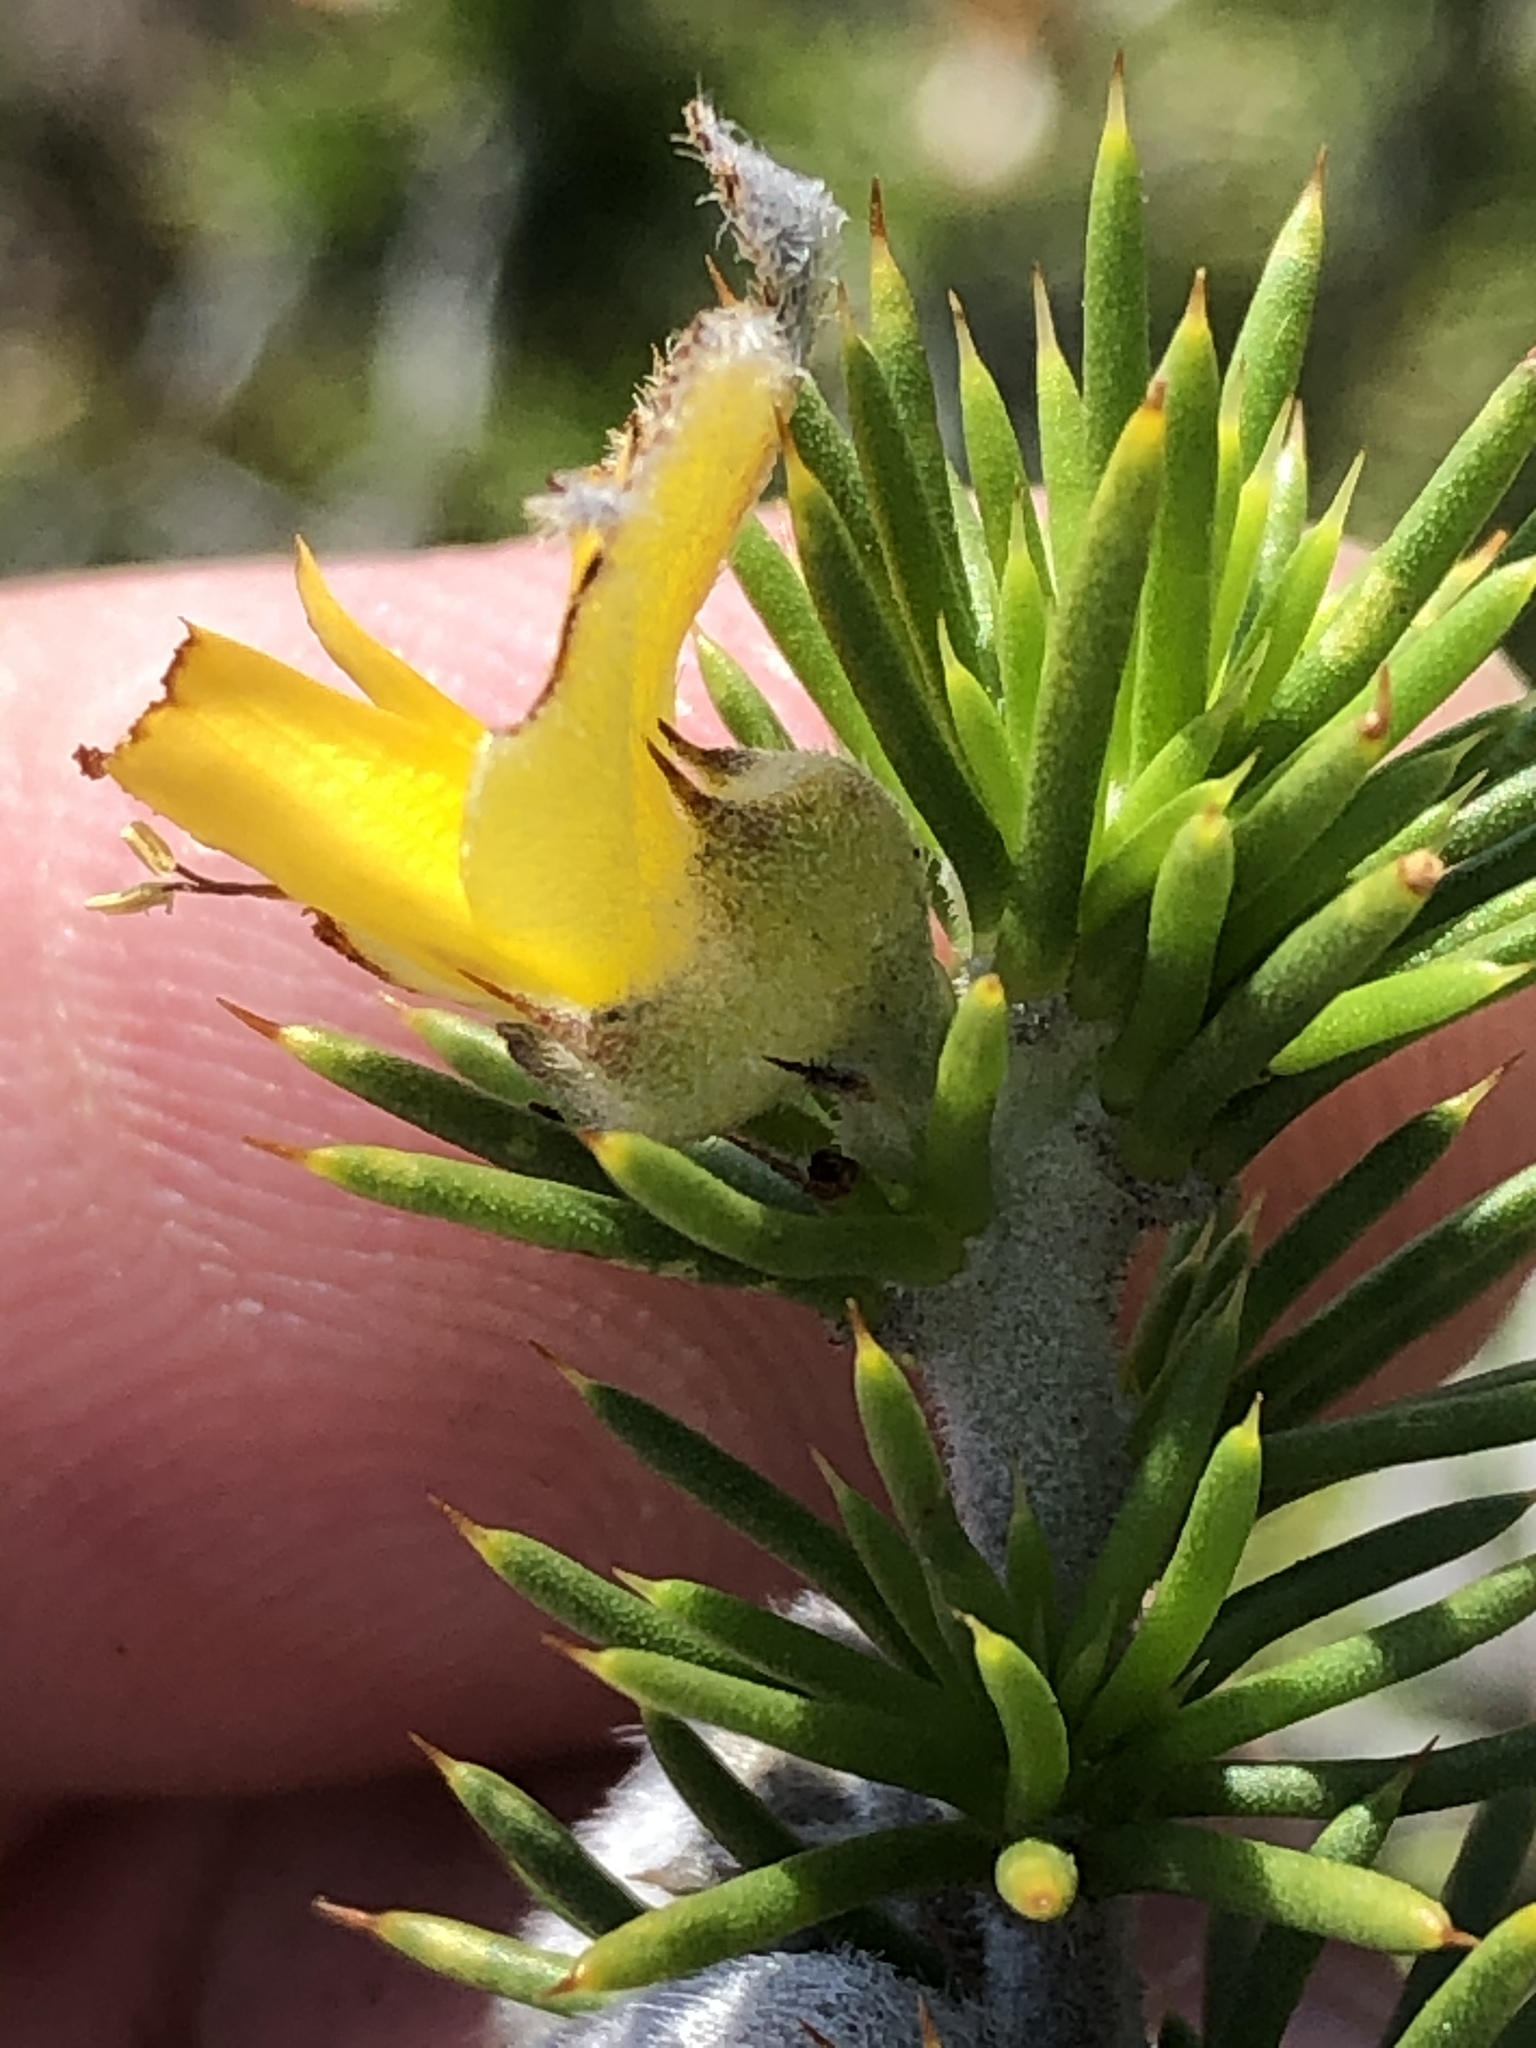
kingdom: Plantae
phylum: Tracheophyta
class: Magnoliopsida
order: Fabales
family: Fabaceae
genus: Aspalathus
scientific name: Aspalathus hirta
